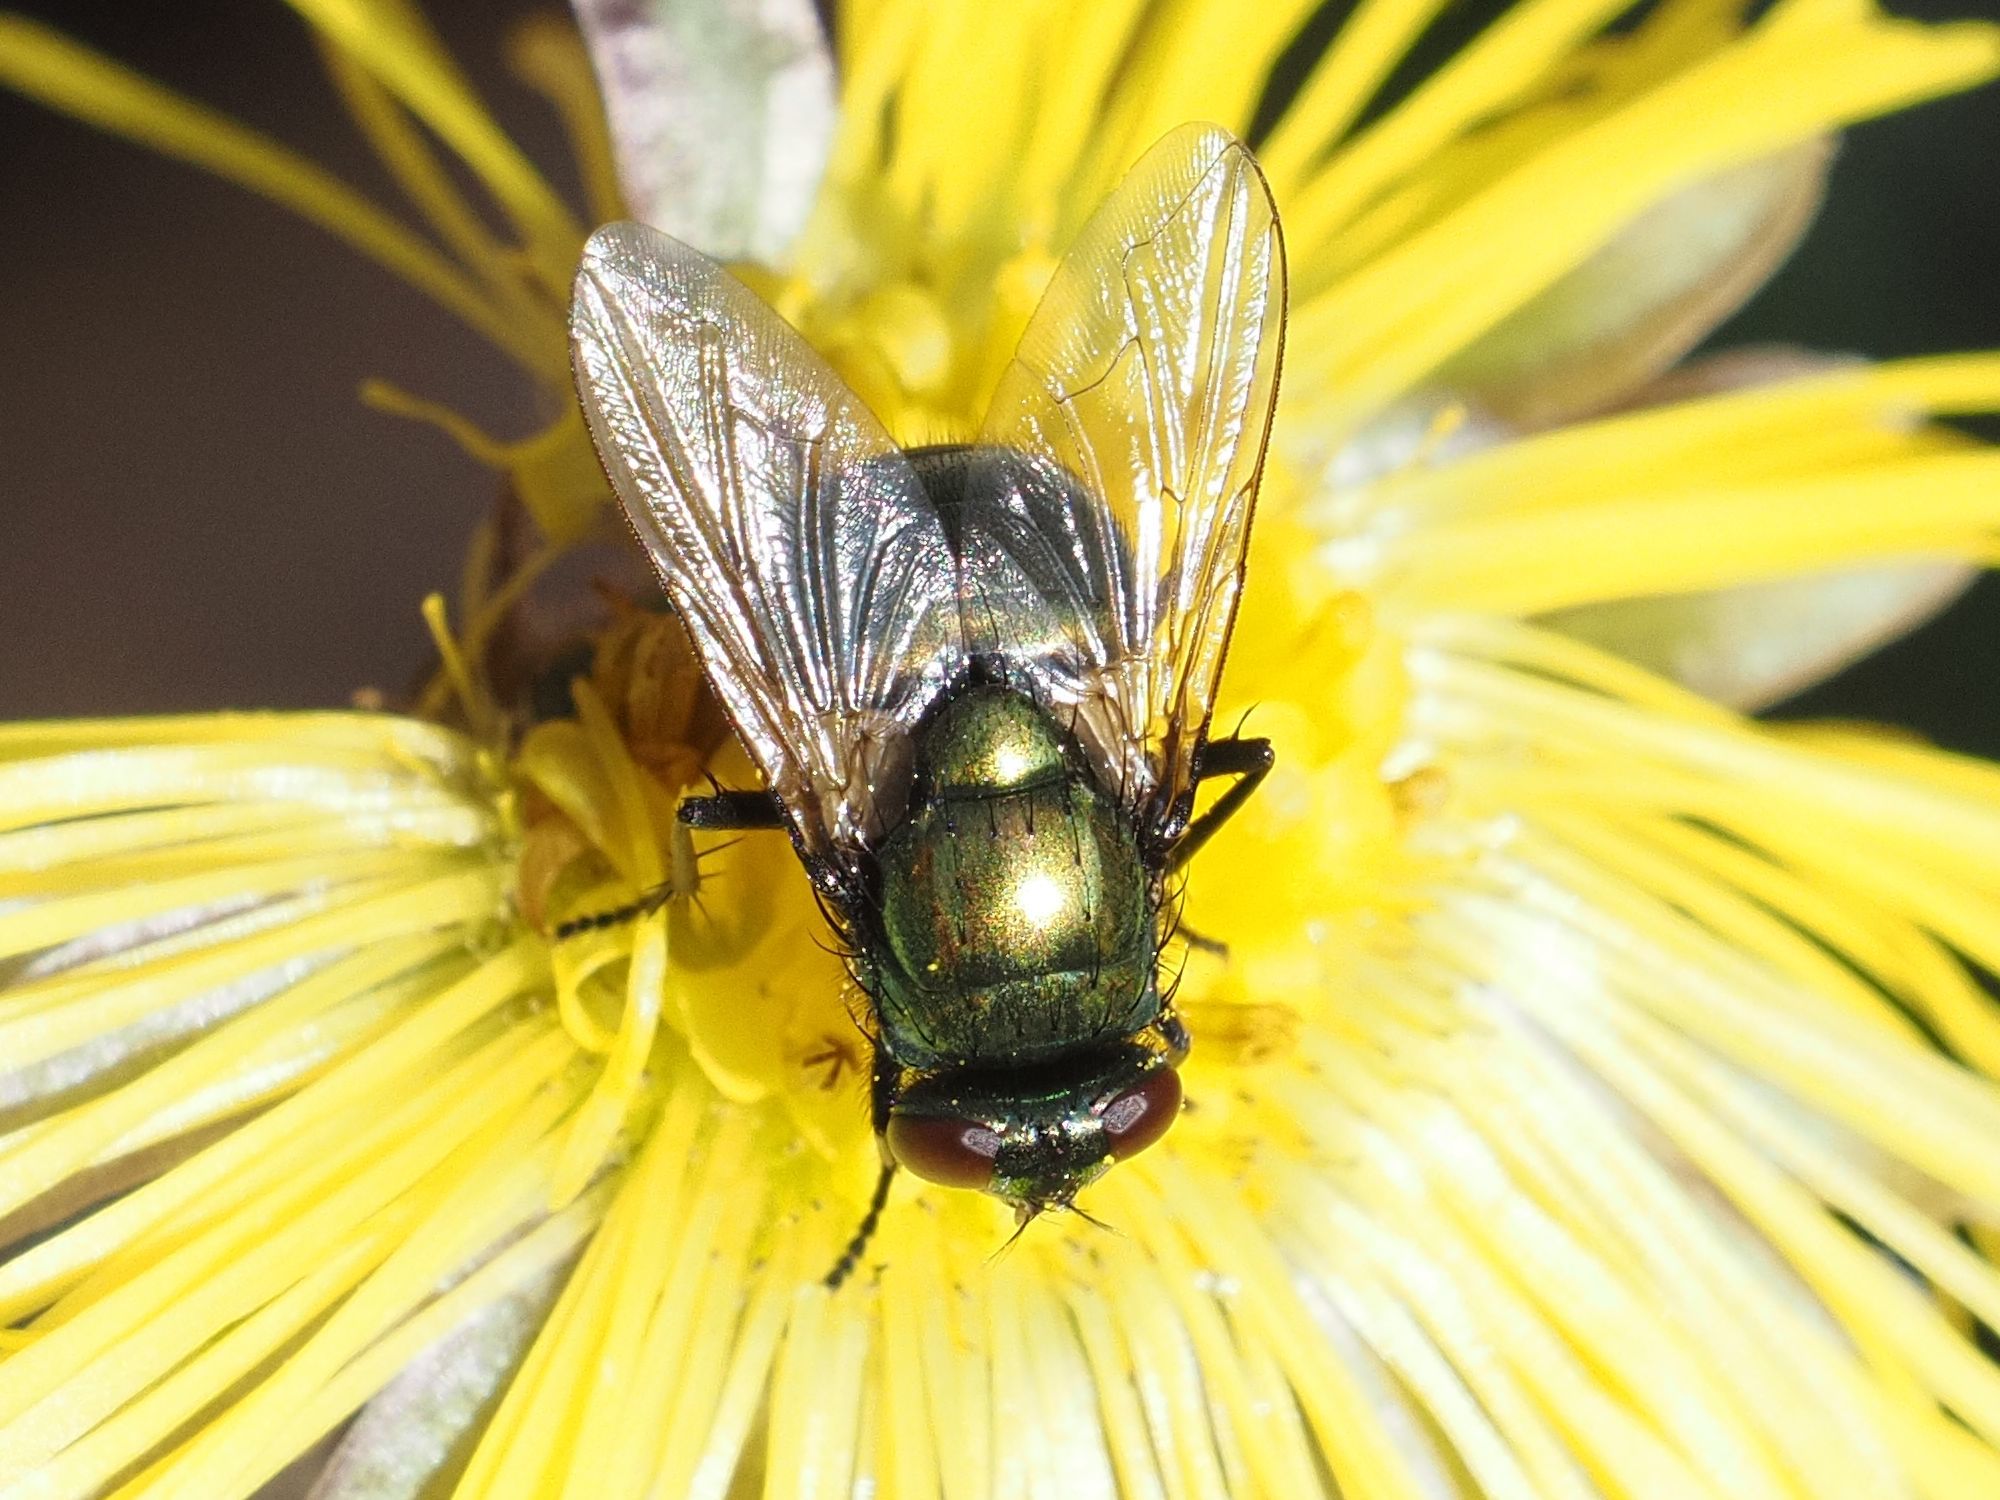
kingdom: Animalia
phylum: Arthropoda
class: Insecta
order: Diptera
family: Muscidae
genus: Neomyia
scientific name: Neomyia cornicina
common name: House fly
